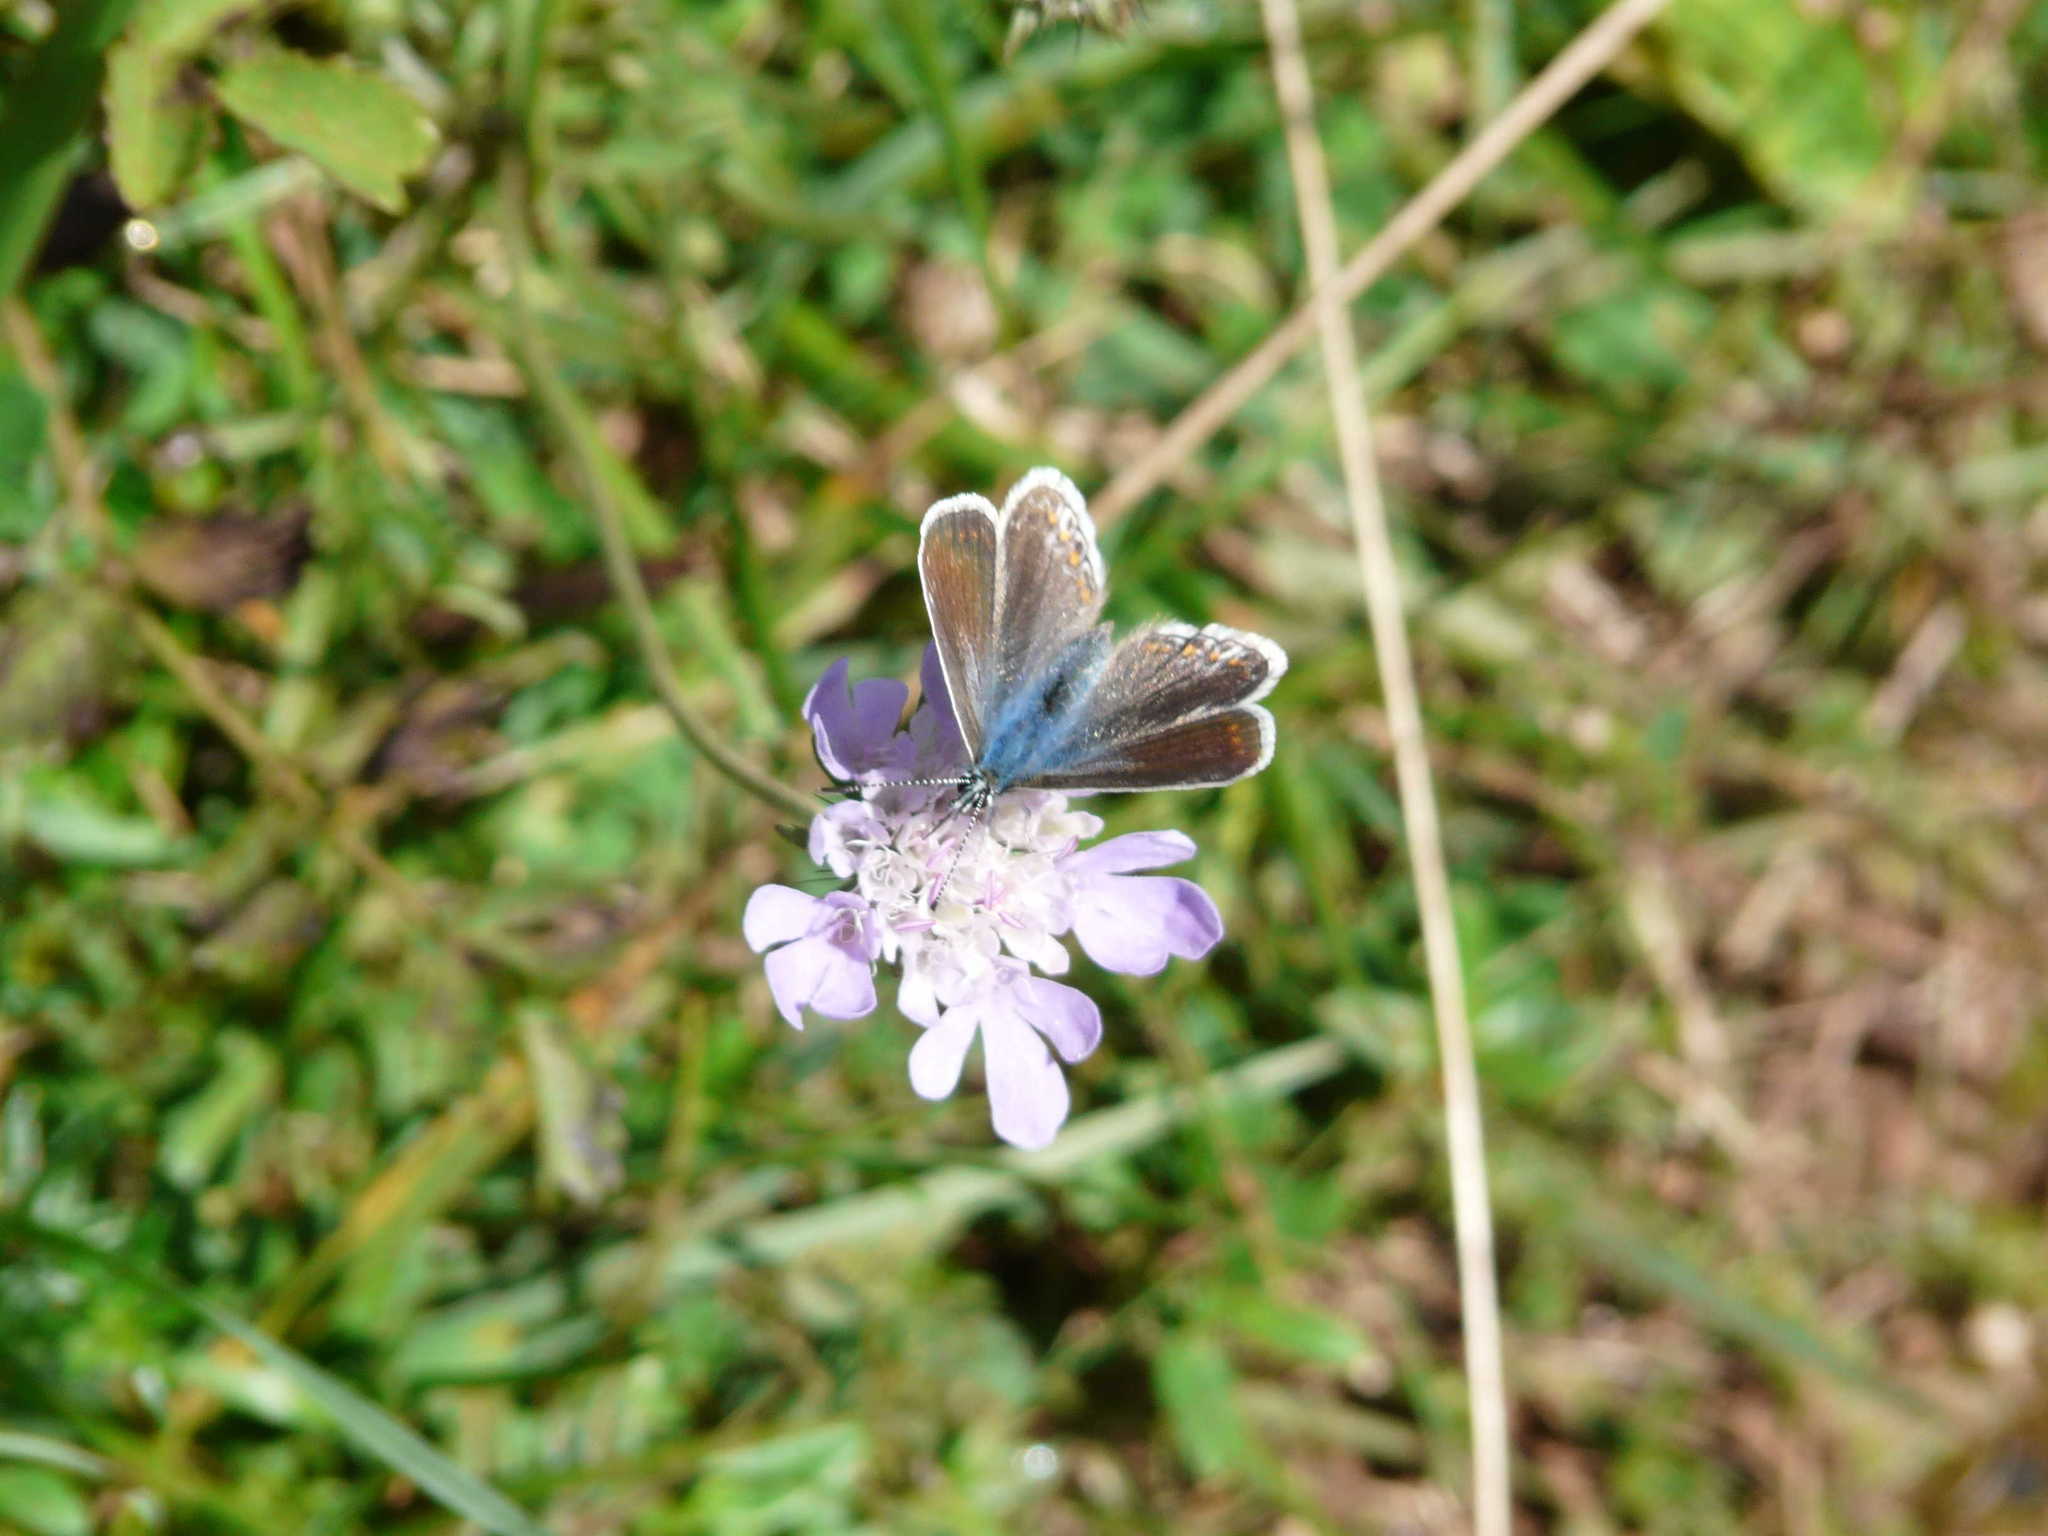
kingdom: Animalia
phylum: Arthropoda
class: Insecta
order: Lepidoptera
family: Lycaenidae
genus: Polyommatus
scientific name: Polyommatus icarus
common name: Common blue
